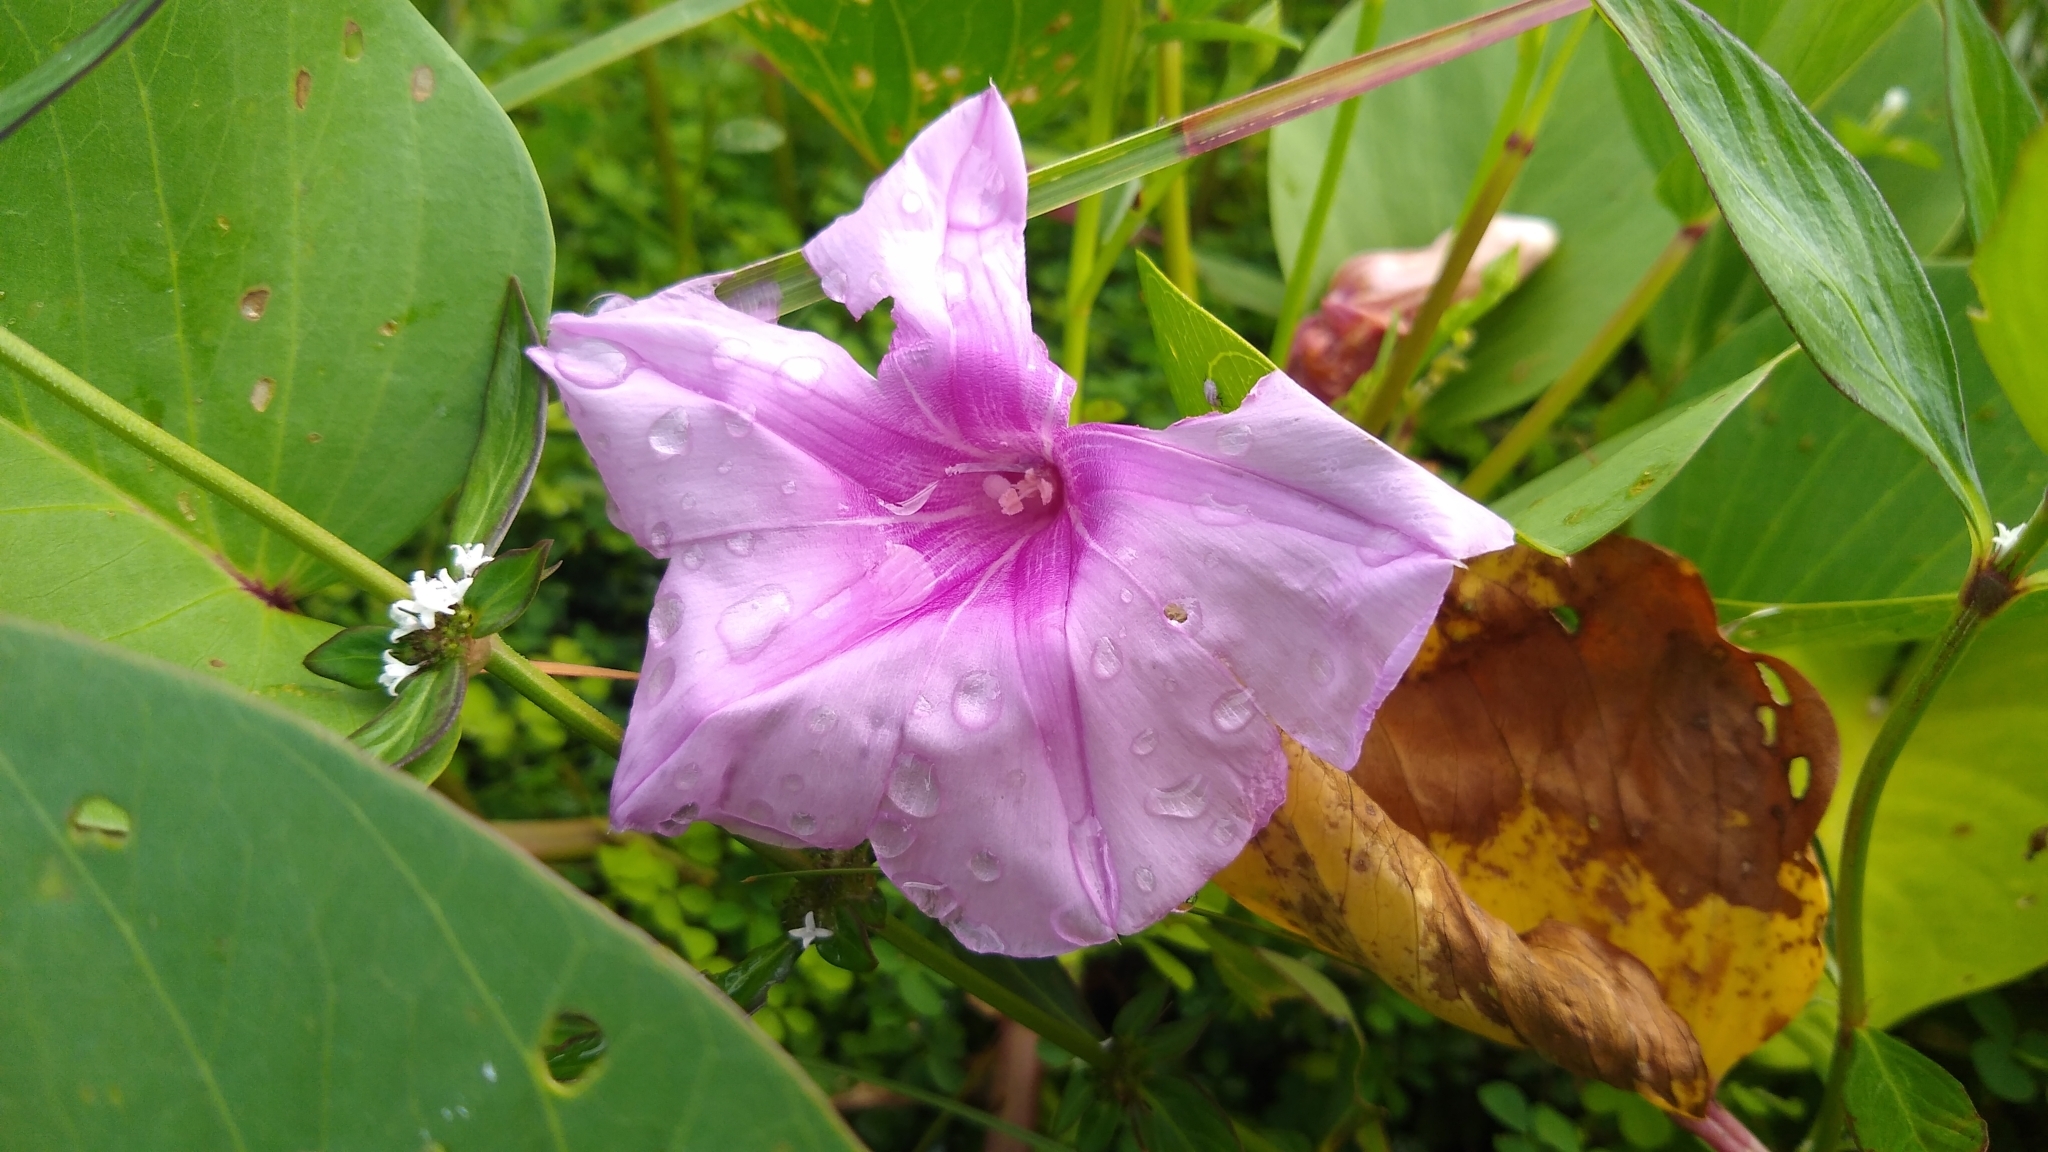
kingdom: Plantae
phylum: Tracheophyta
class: Magnoliopsida
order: Solanales
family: Convolvulaceae
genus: Ipomoea
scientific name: Ipomoea pes-caprae
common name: Beach morning glory
